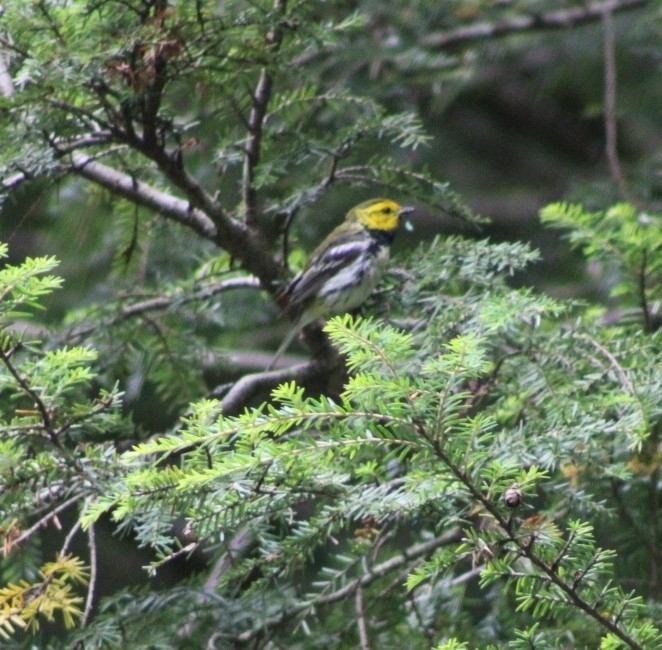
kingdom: Animalia
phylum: Chordata
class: Aves
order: Passeriformes
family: Parulidae
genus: Setophaga
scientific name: Setophaga virens
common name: Black-throated green warbler
